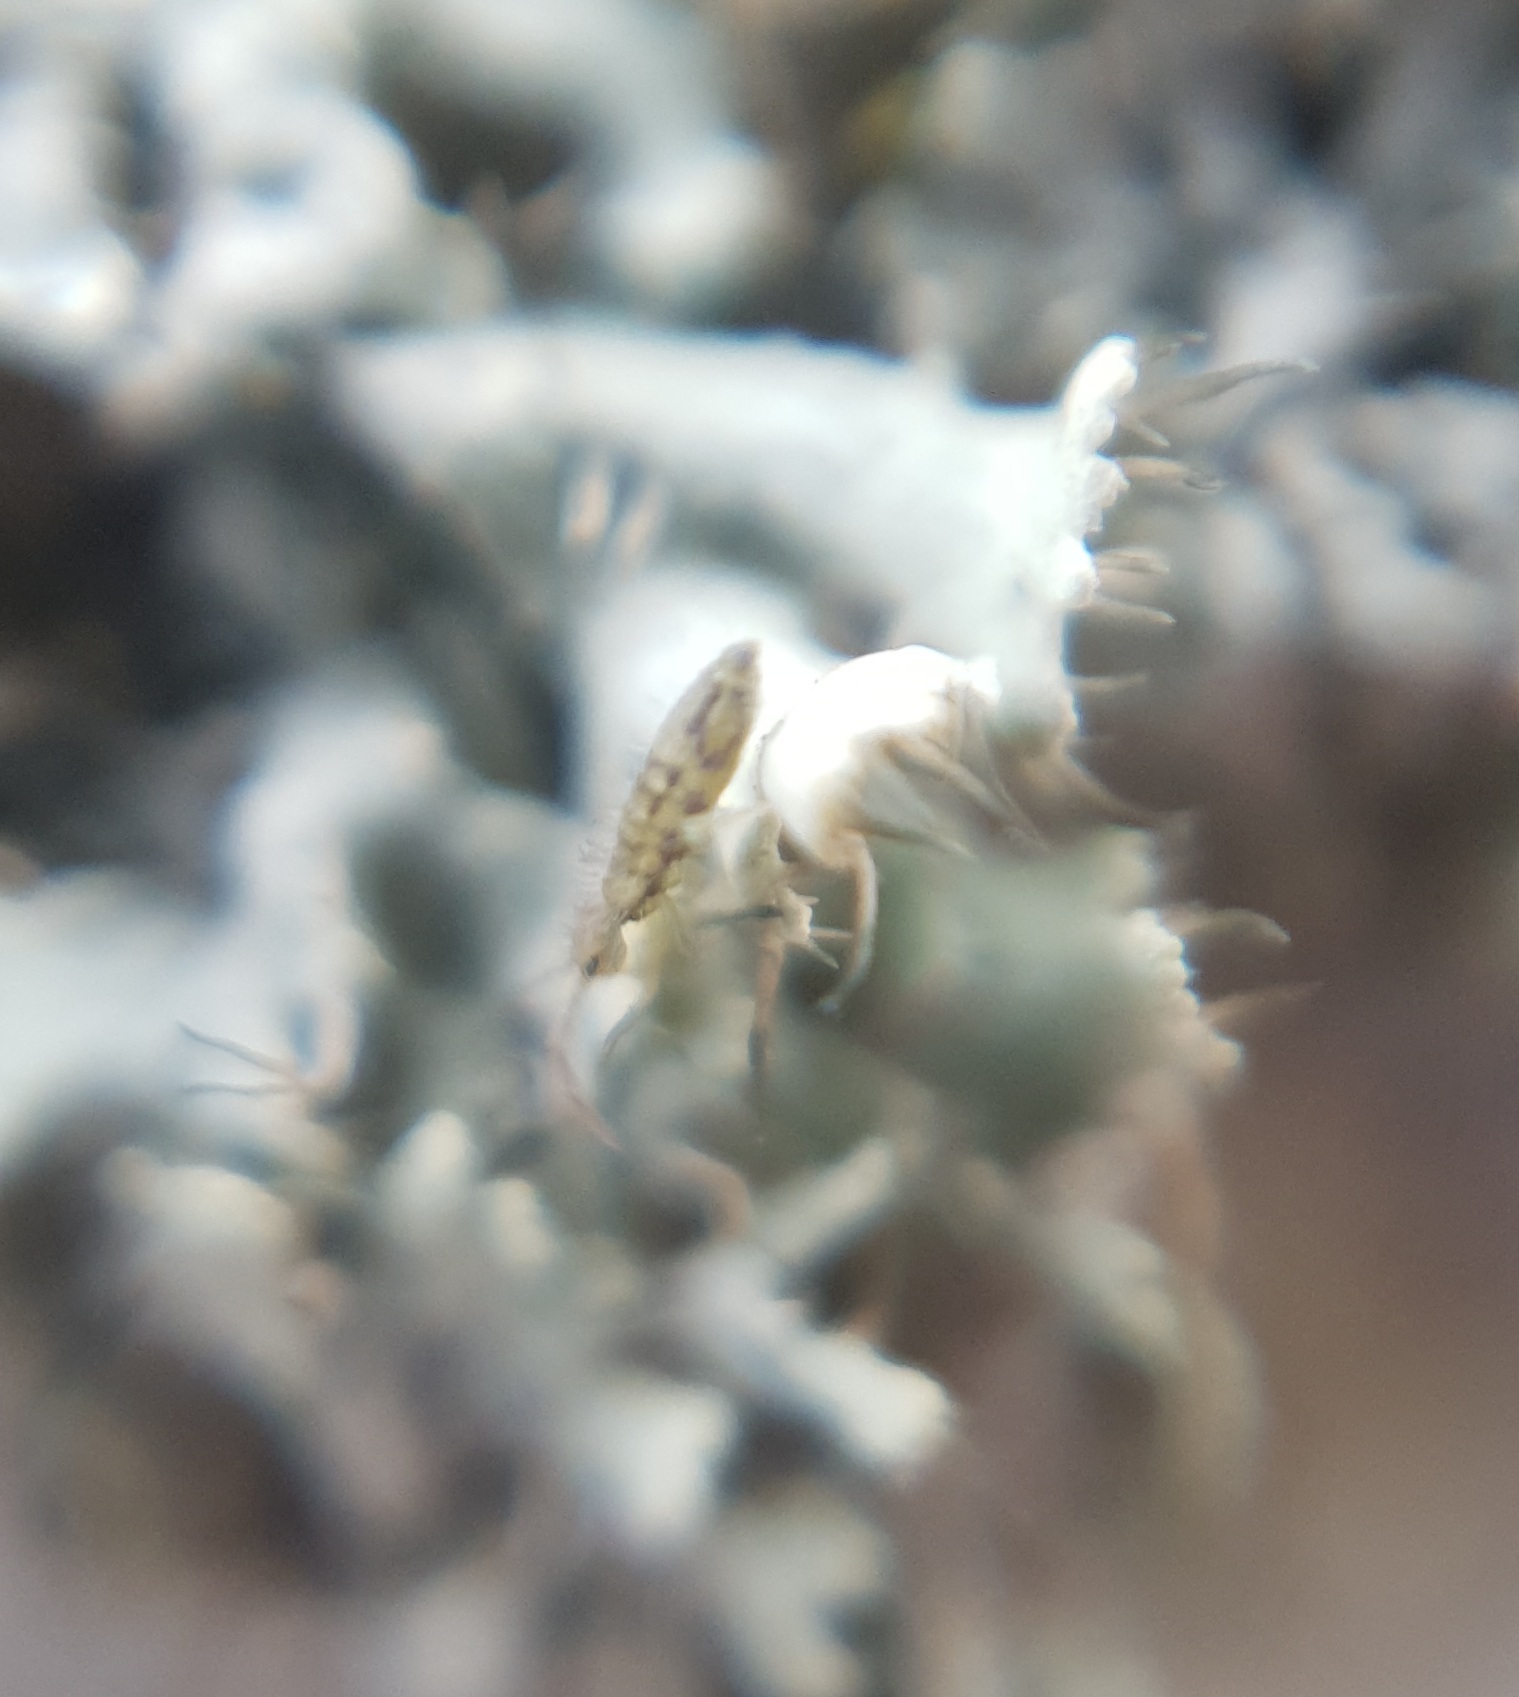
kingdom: Animalia
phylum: Arthropoda
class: Collembola
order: Entomobryomorpha
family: Entomobryidae
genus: Entomobrya
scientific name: Entomobrya nivalis
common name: Cosmopolitan springtail
